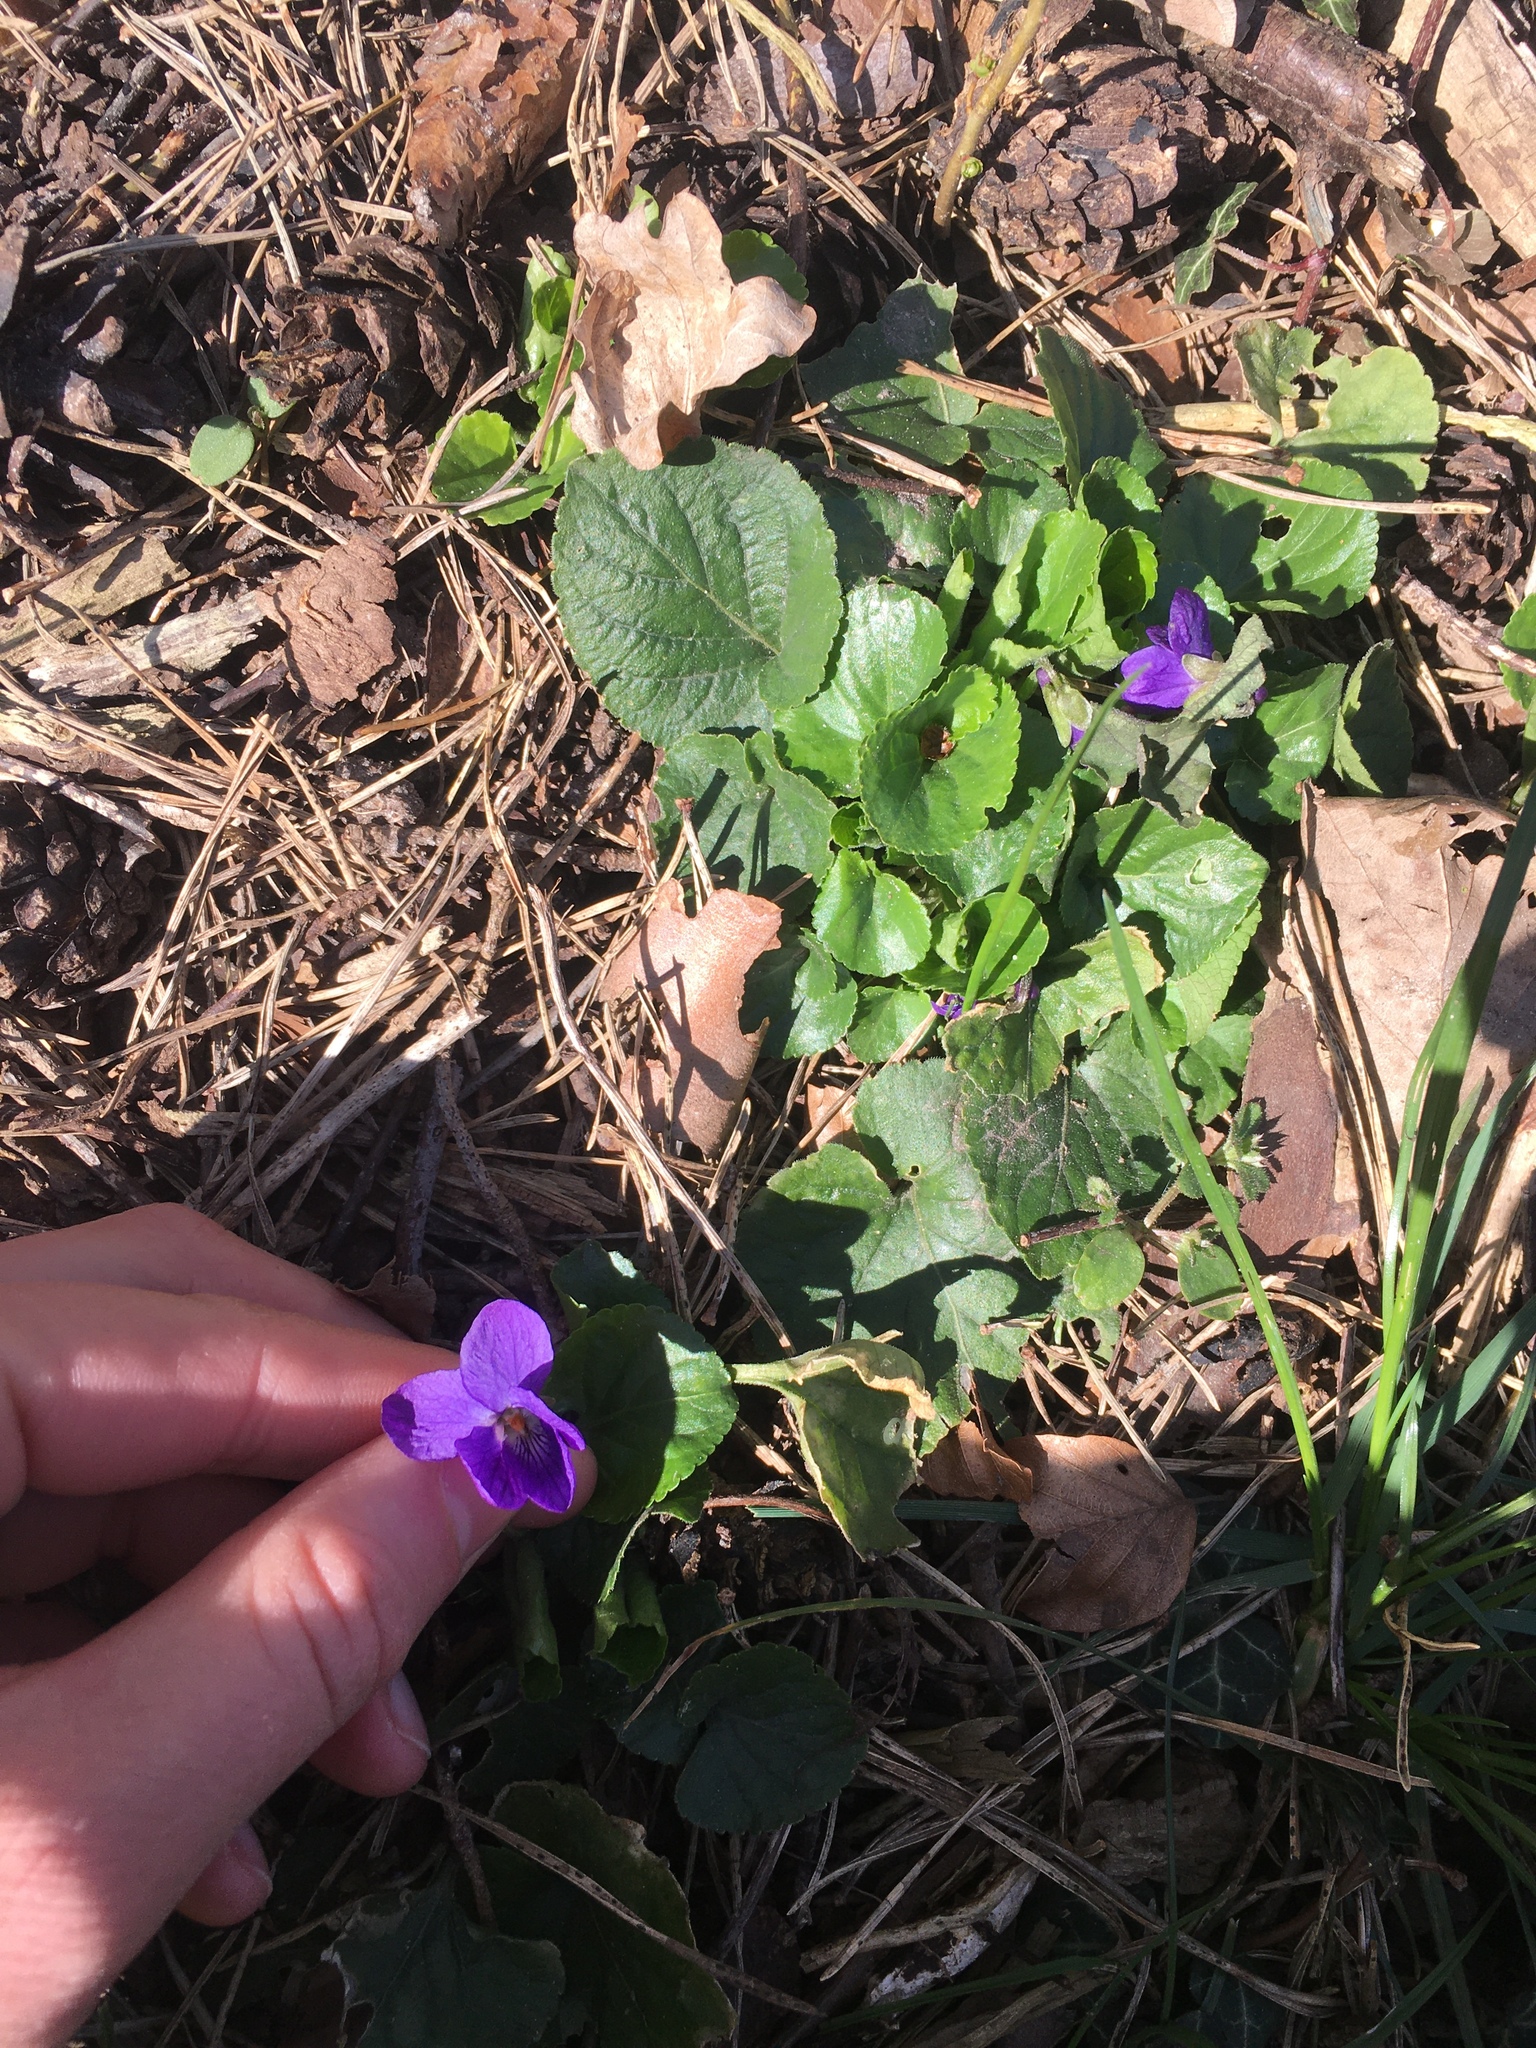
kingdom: Plantae
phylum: Tracheophyta
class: Magnoliopsida
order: Malpighiales
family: Violaceae
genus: Viola
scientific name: Viola odorata
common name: Sweet violet
